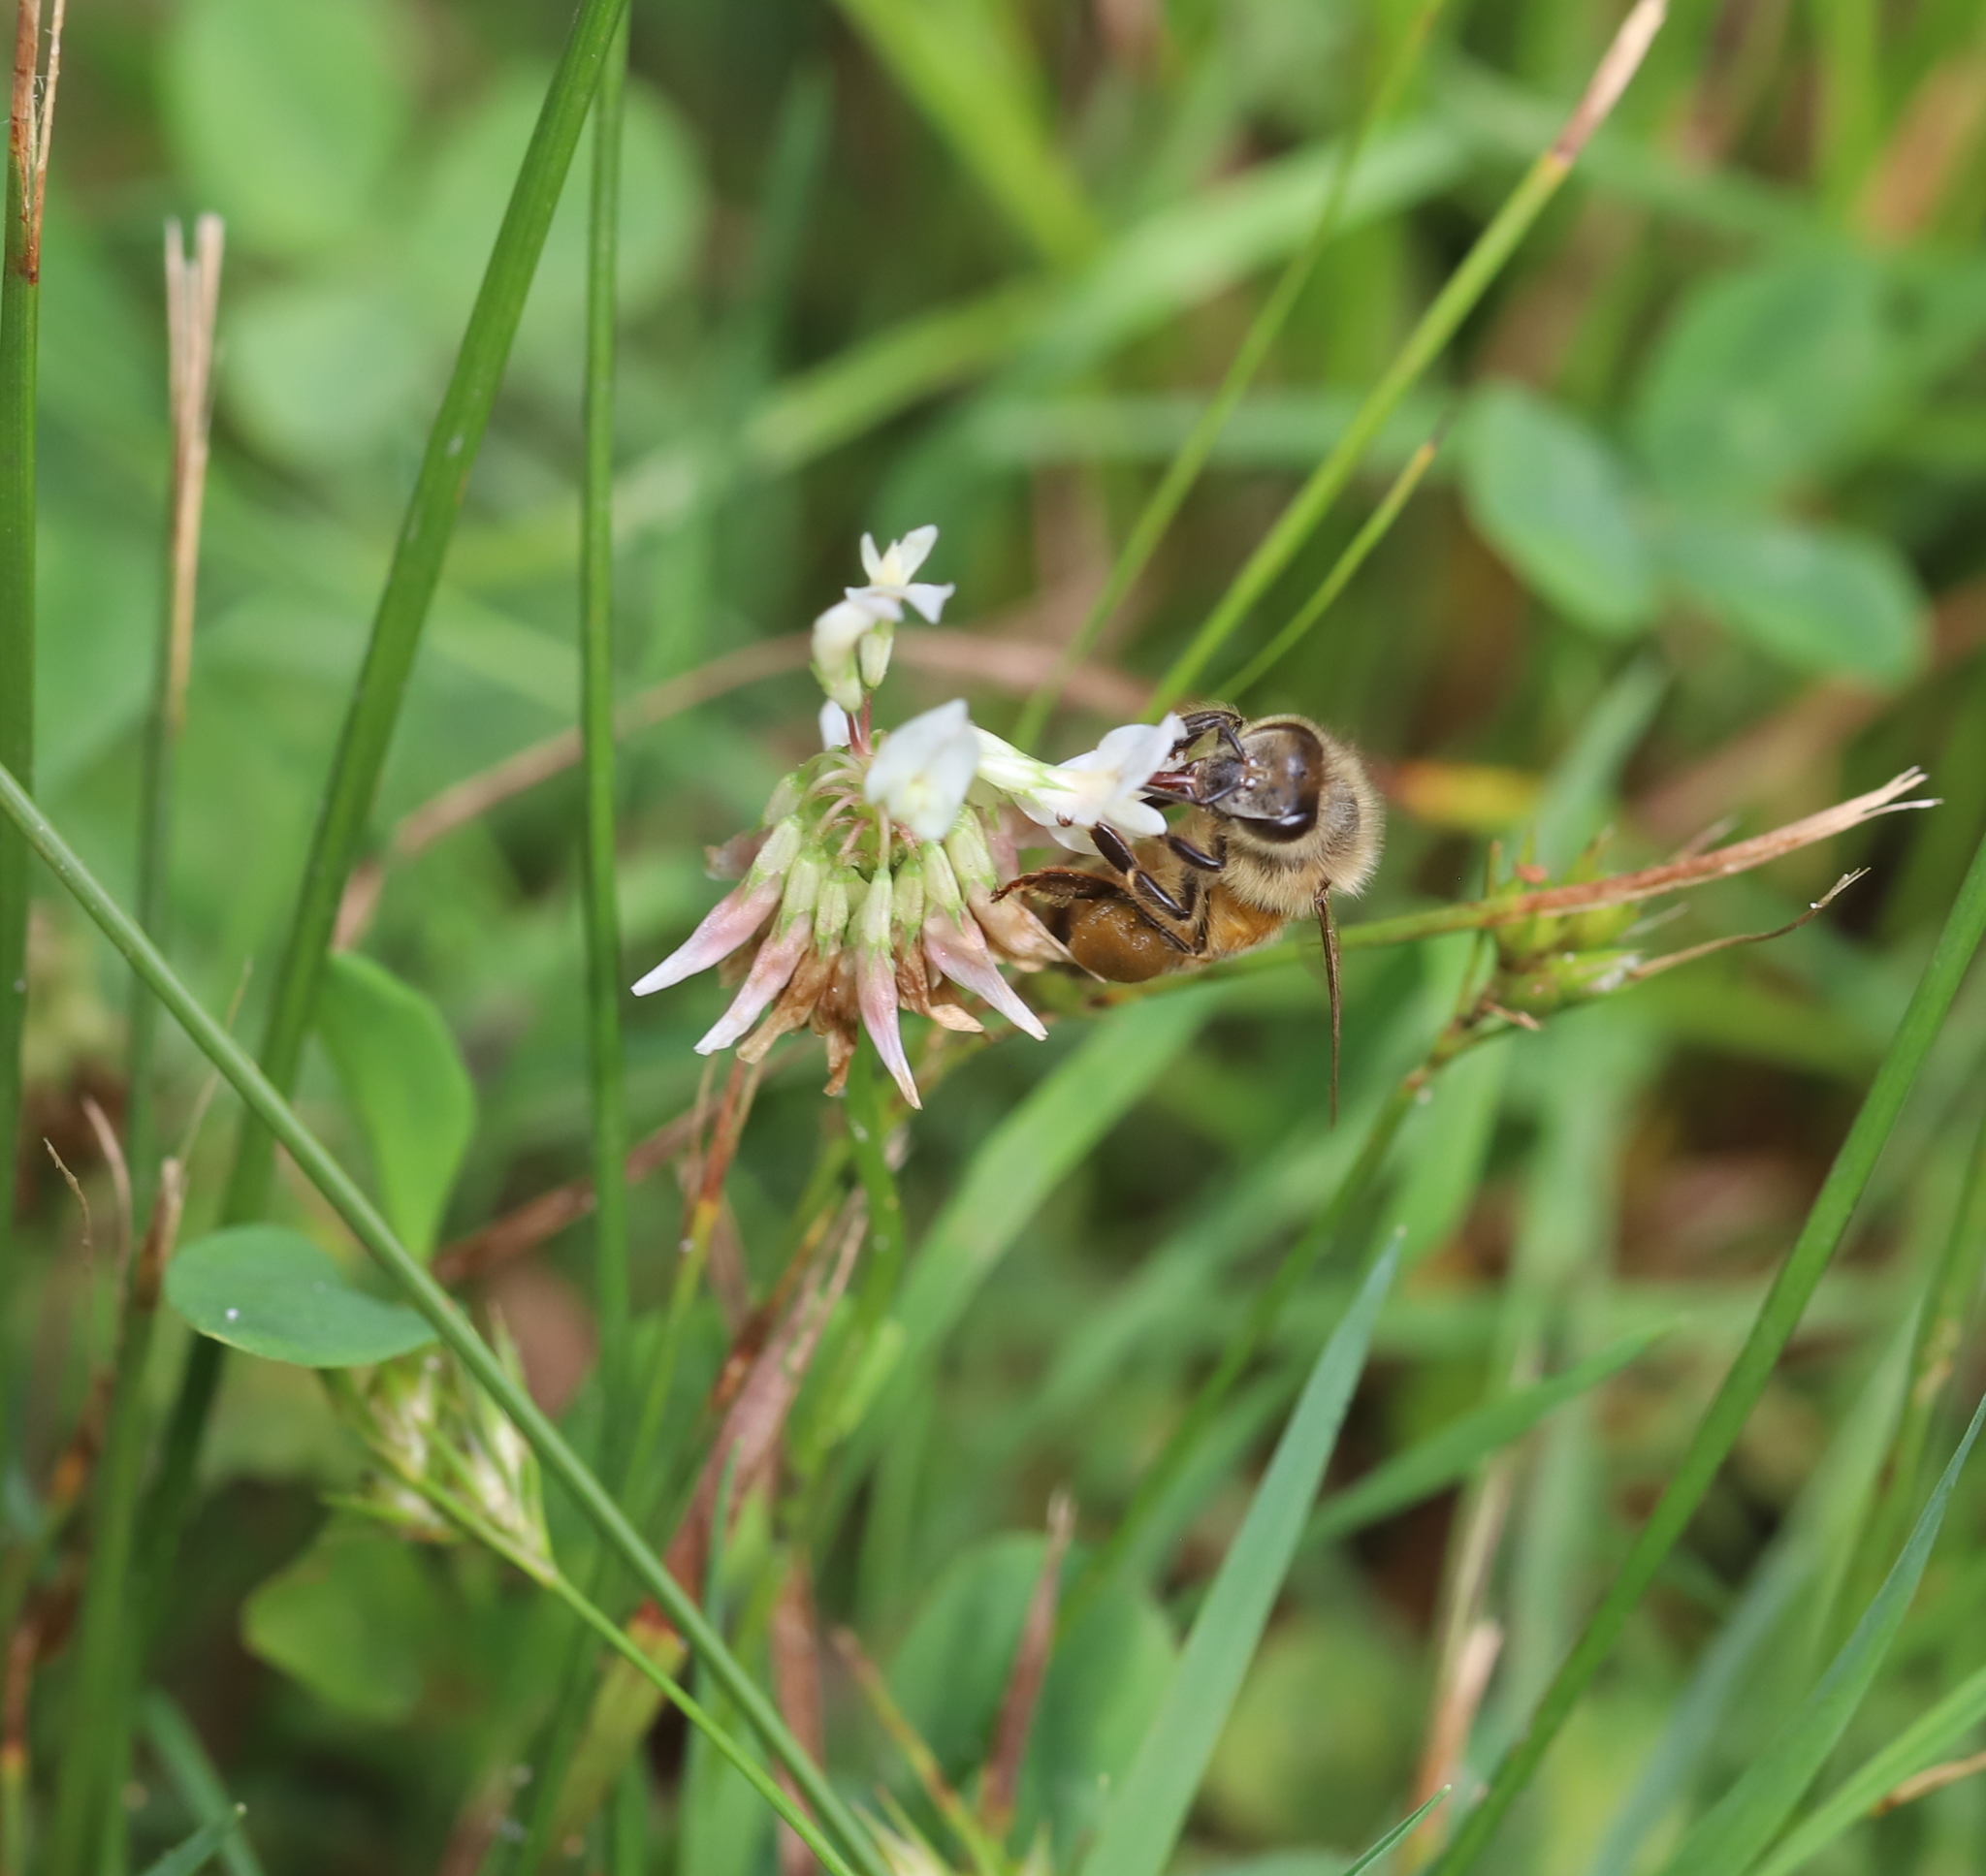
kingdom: Animalia
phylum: Arthropoda
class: Insecta
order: Hymenoptera
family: Apidae
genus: Apis
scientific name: Apis mellifera
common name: Honey bee
